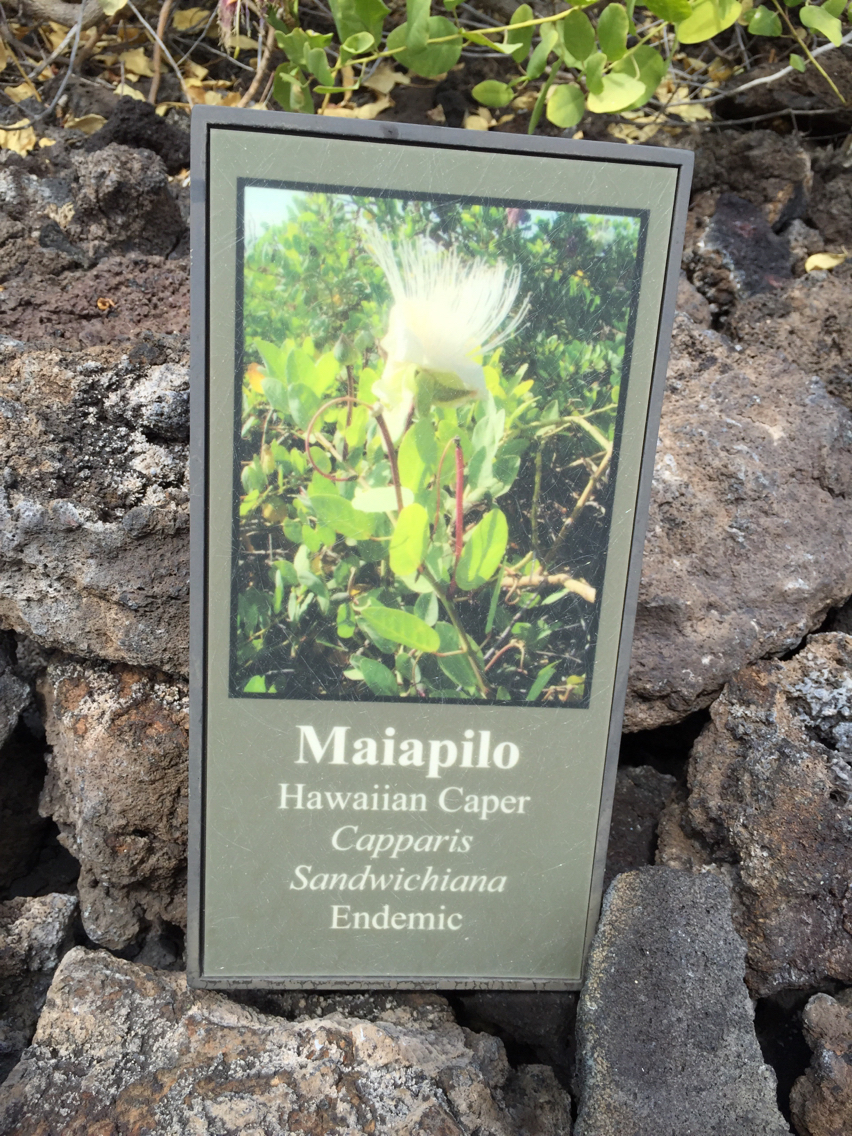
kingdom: Plantae
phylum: Tracheophyta
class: Magnoliopsida
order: Brassicales
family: Capparaceae
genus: Capparis
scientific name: Capparis spinosa
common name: Caper
